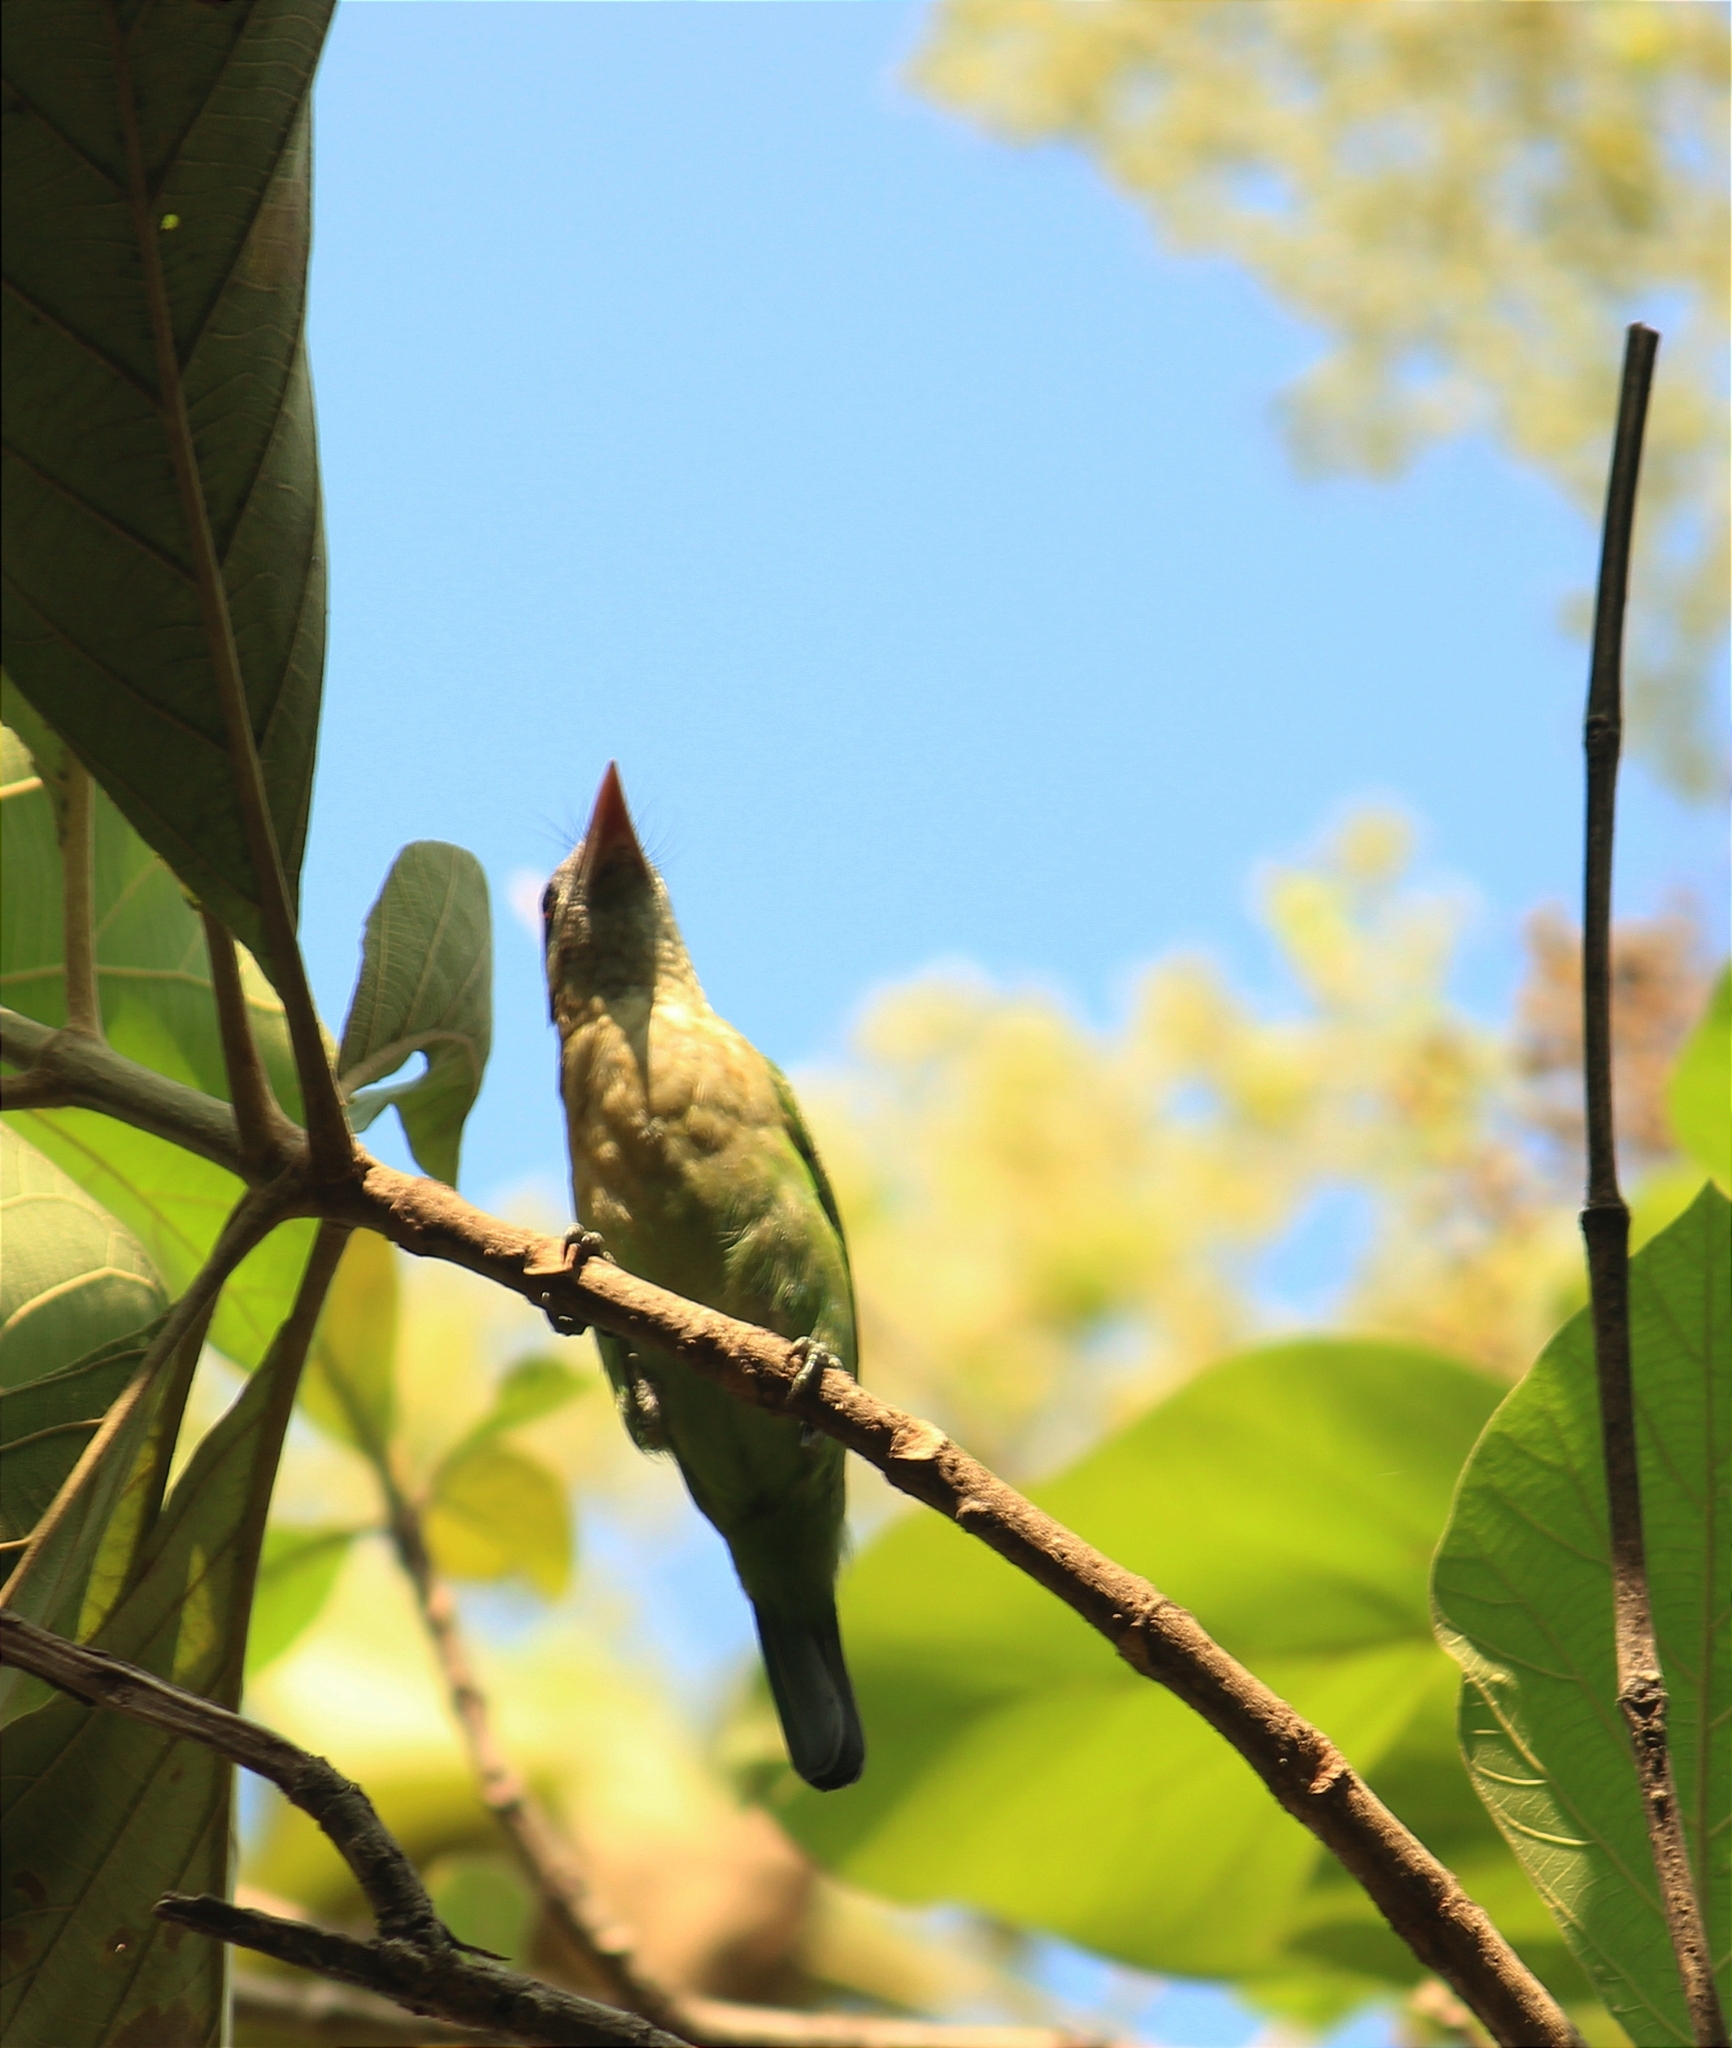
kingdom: Animalia
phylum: Chordata
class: Aves
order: Piciformes
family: Megalaimidae
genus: Psilopogon
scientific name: Psilopogon viridis
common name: White-cheeked barbet
